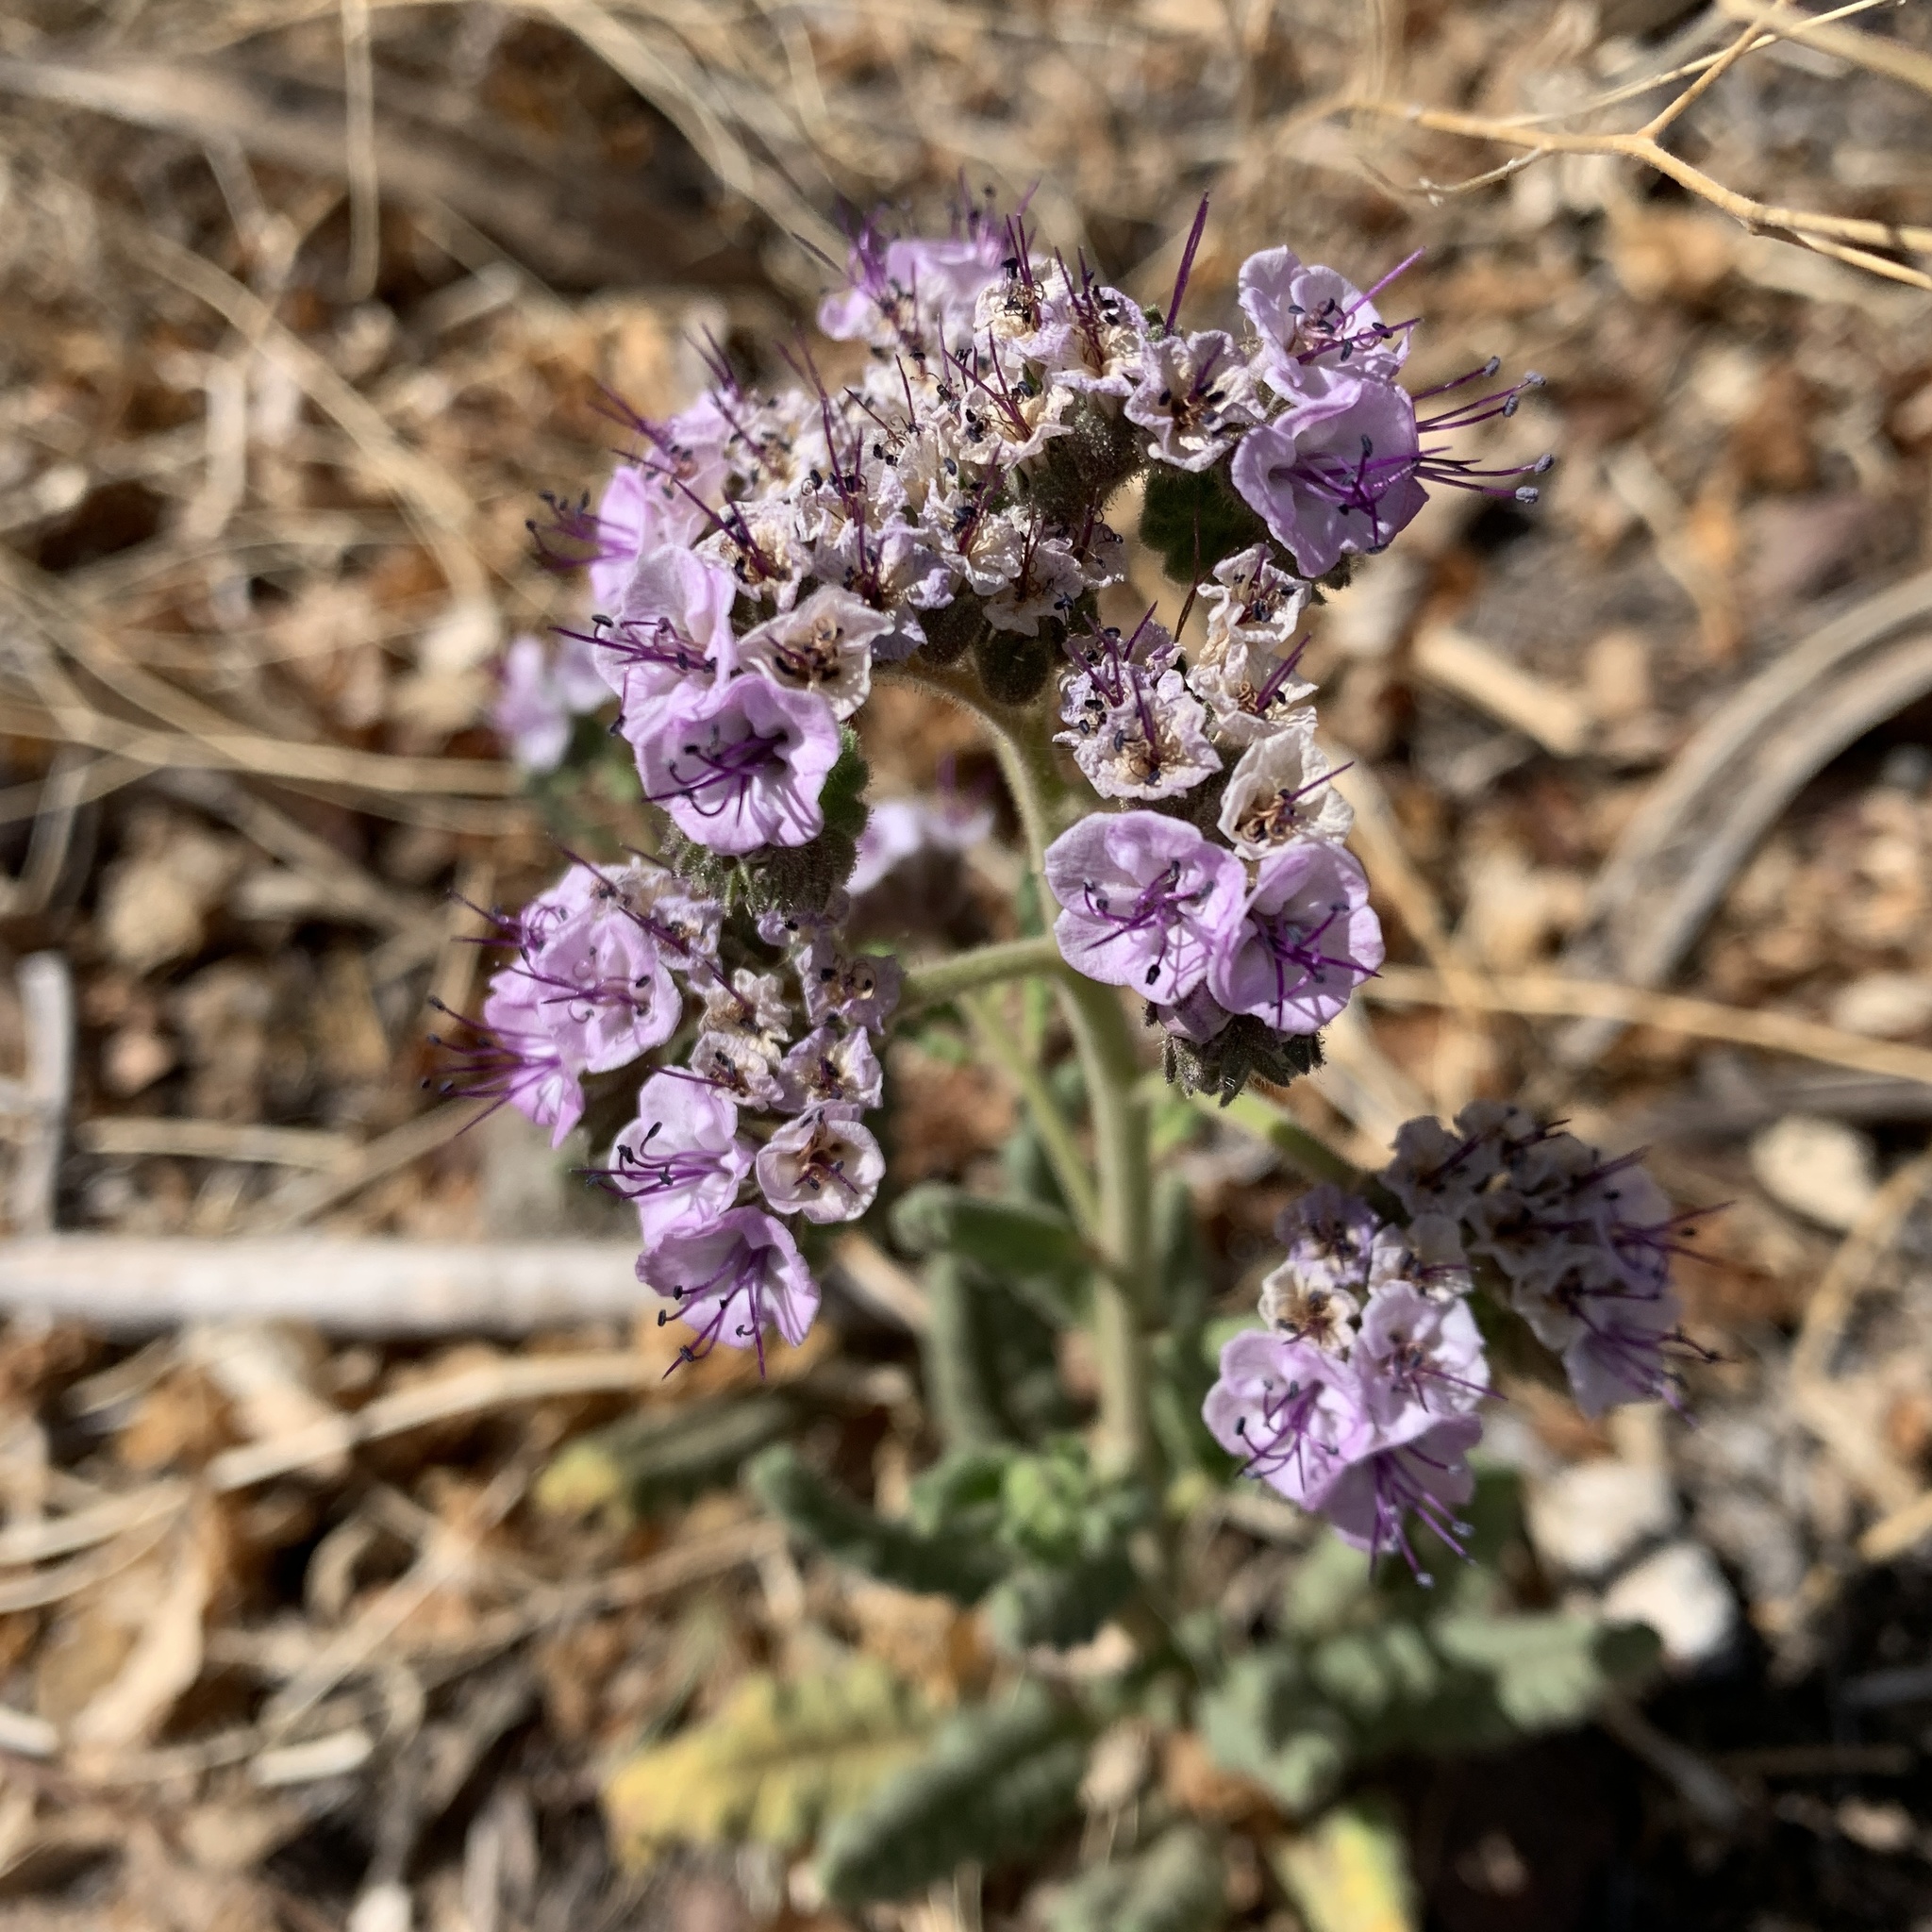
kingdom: Plantae
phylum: Tracheophyta
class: Magnoliopsida
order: Boraginales
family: Hydrophyllaceae
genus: Phacelia
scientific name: Phacelia integrifolia
